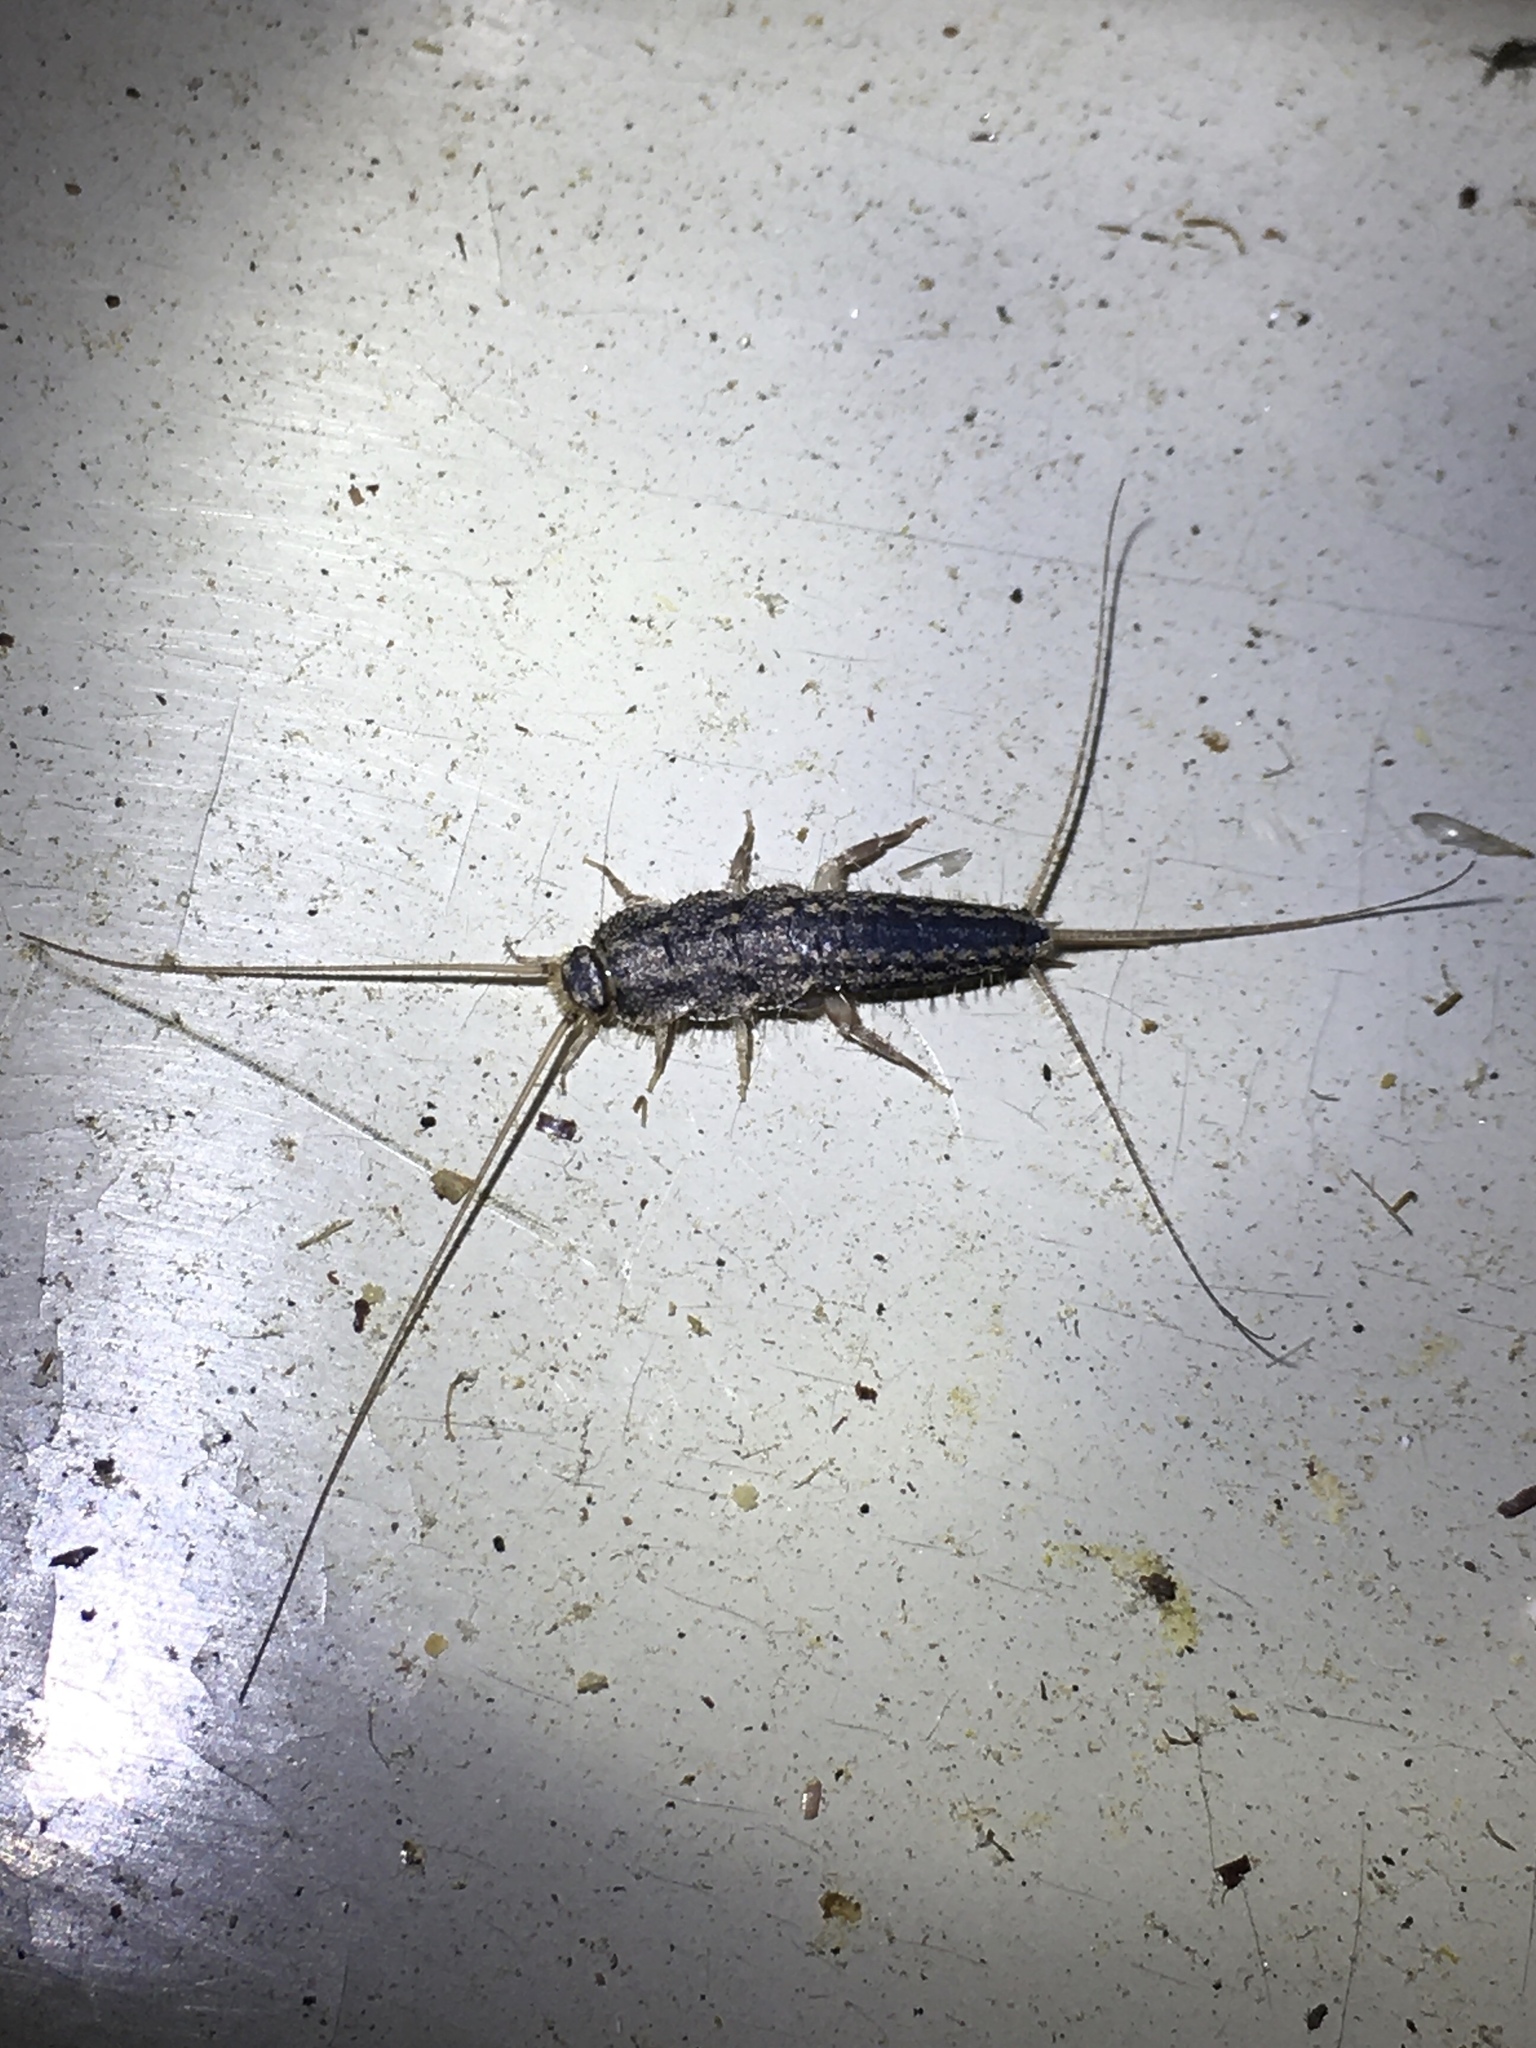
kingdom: Animalia
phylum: Arthropoda
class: Insecta
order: Zygentoma
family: Lepismatidae
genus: Ctenolepisma
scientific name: Ctenolepisma lineata
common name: Four-lined silverfish
